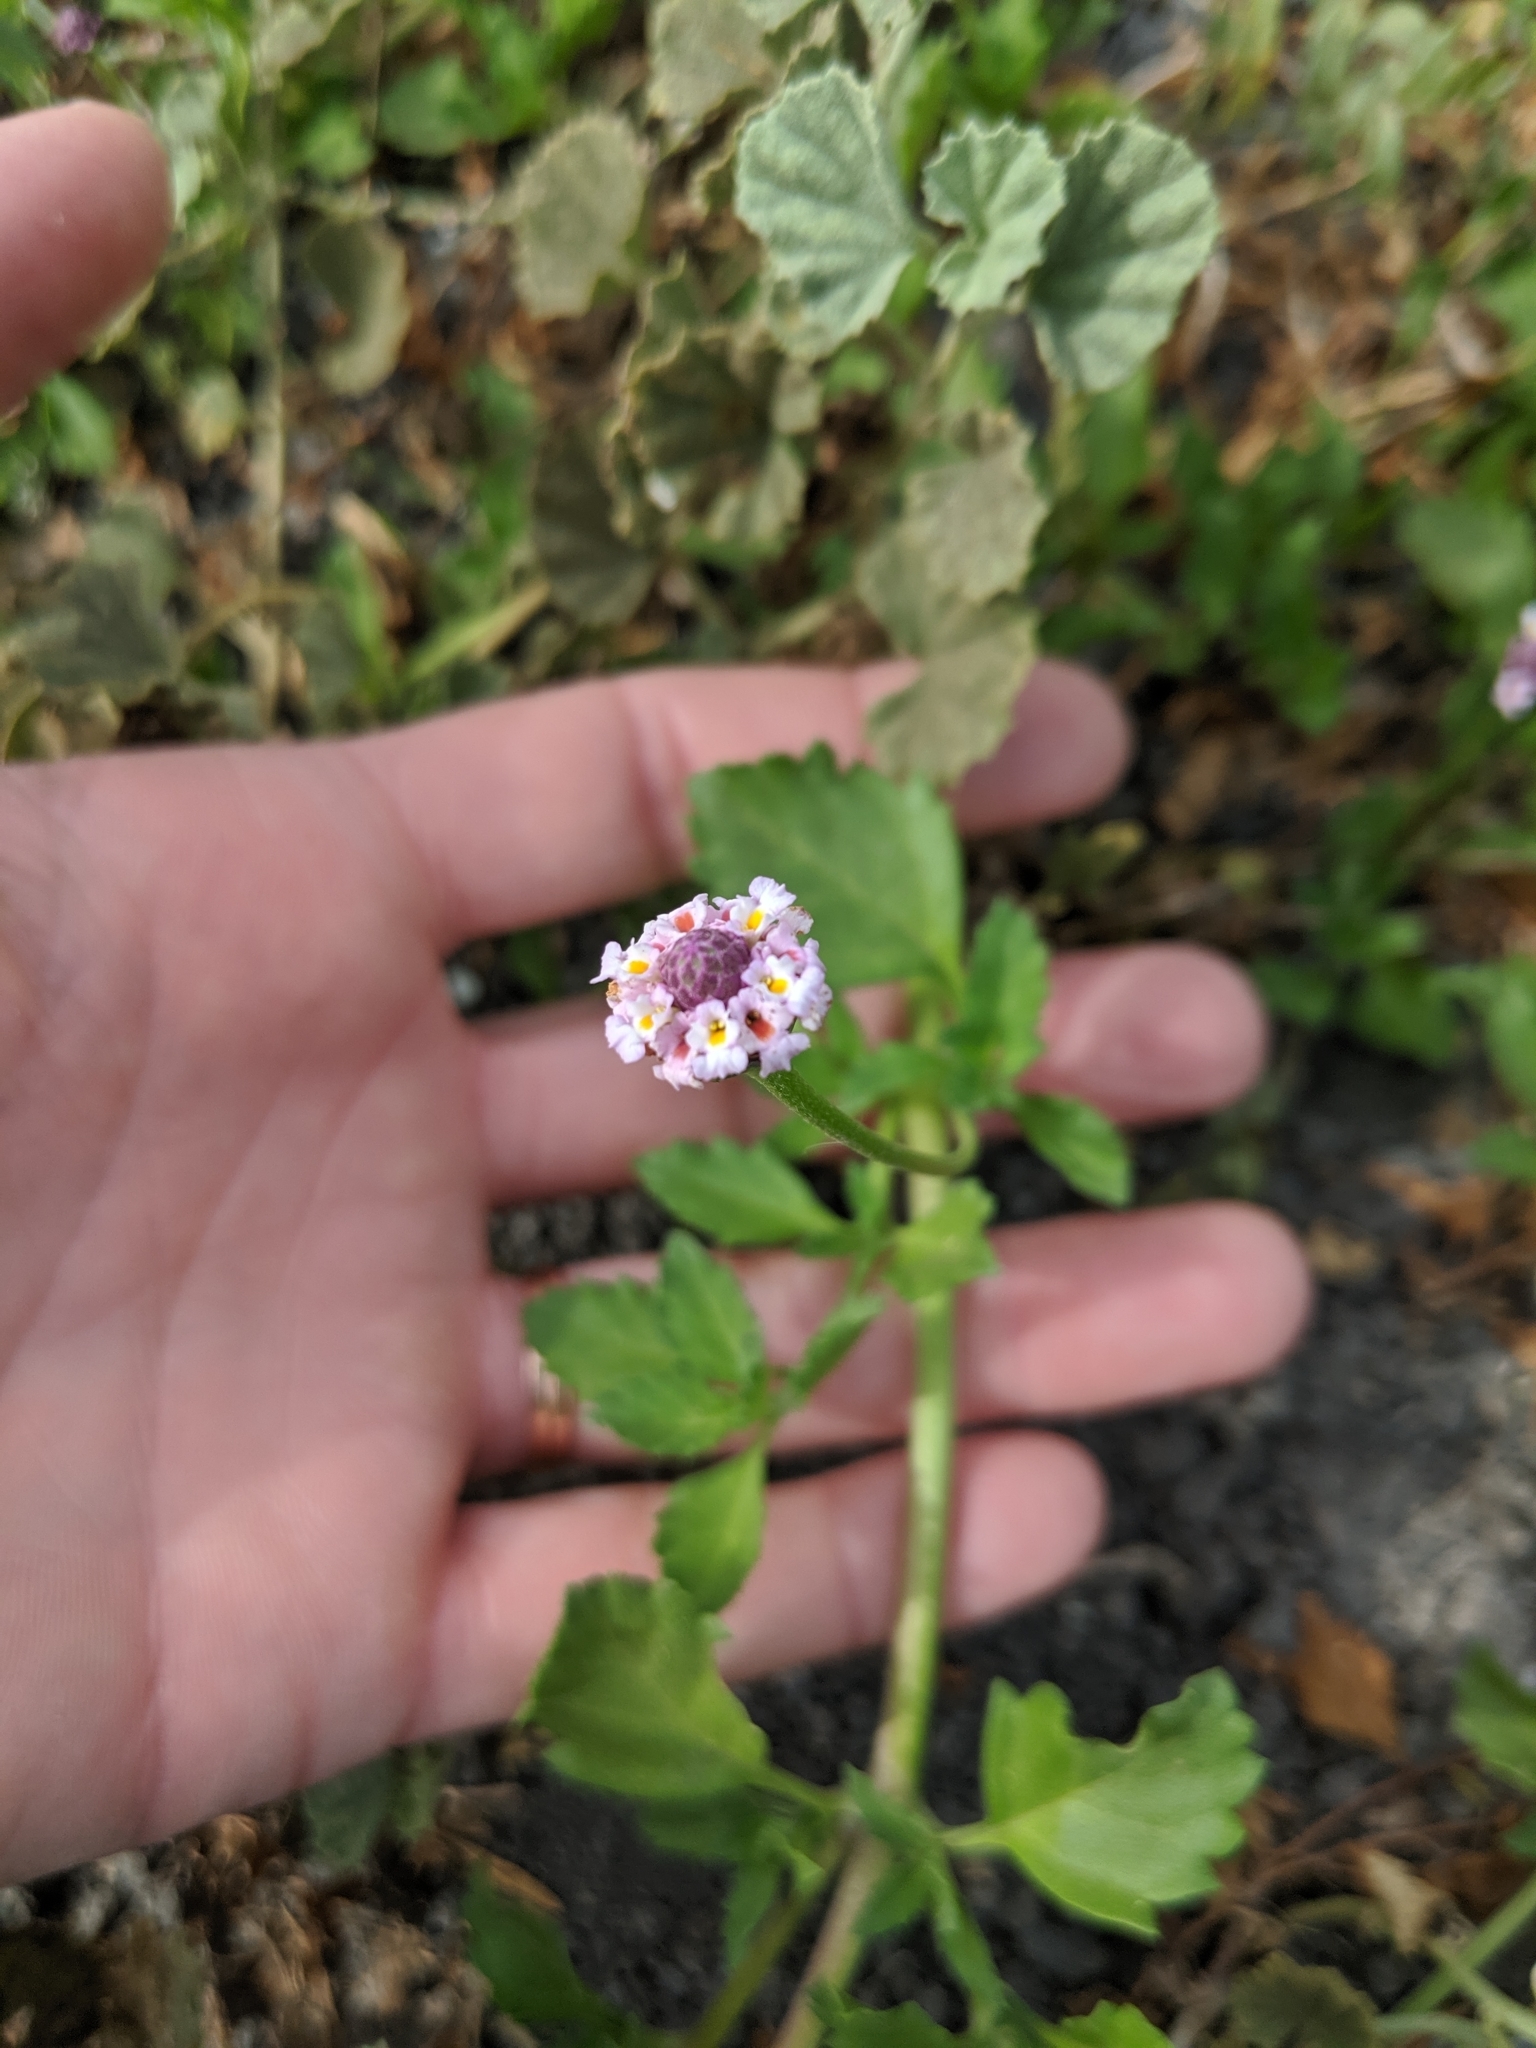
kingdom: Plantae
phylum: Tracheophyta
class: Magnoliopsida
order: Lamiales
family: Verbenaceae
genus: Phyla
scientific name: Phyla nodiflora
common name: Frogfruit
